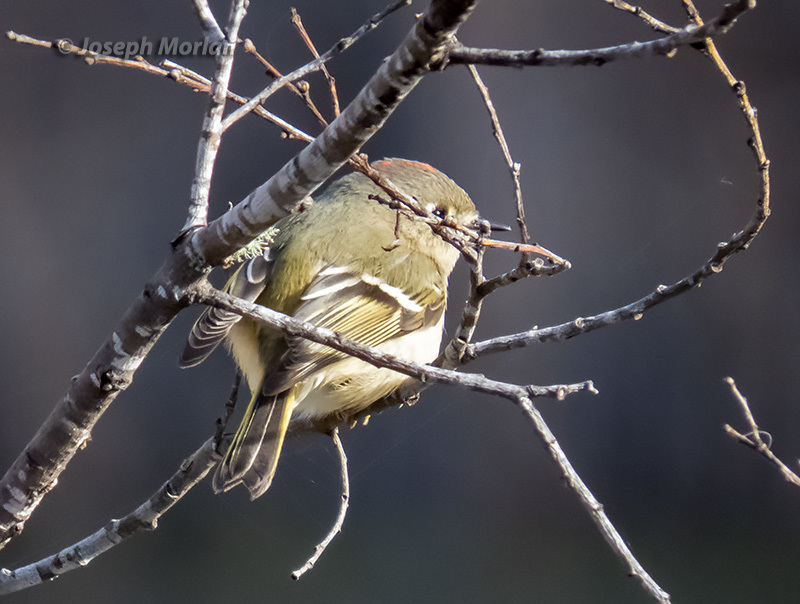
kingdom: Animalia
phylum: Chordata
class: Aves
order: Passeriformes
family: Regulidae
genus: Regulus
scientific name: Regulus calendula
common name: Ruby-crowned kinglet
